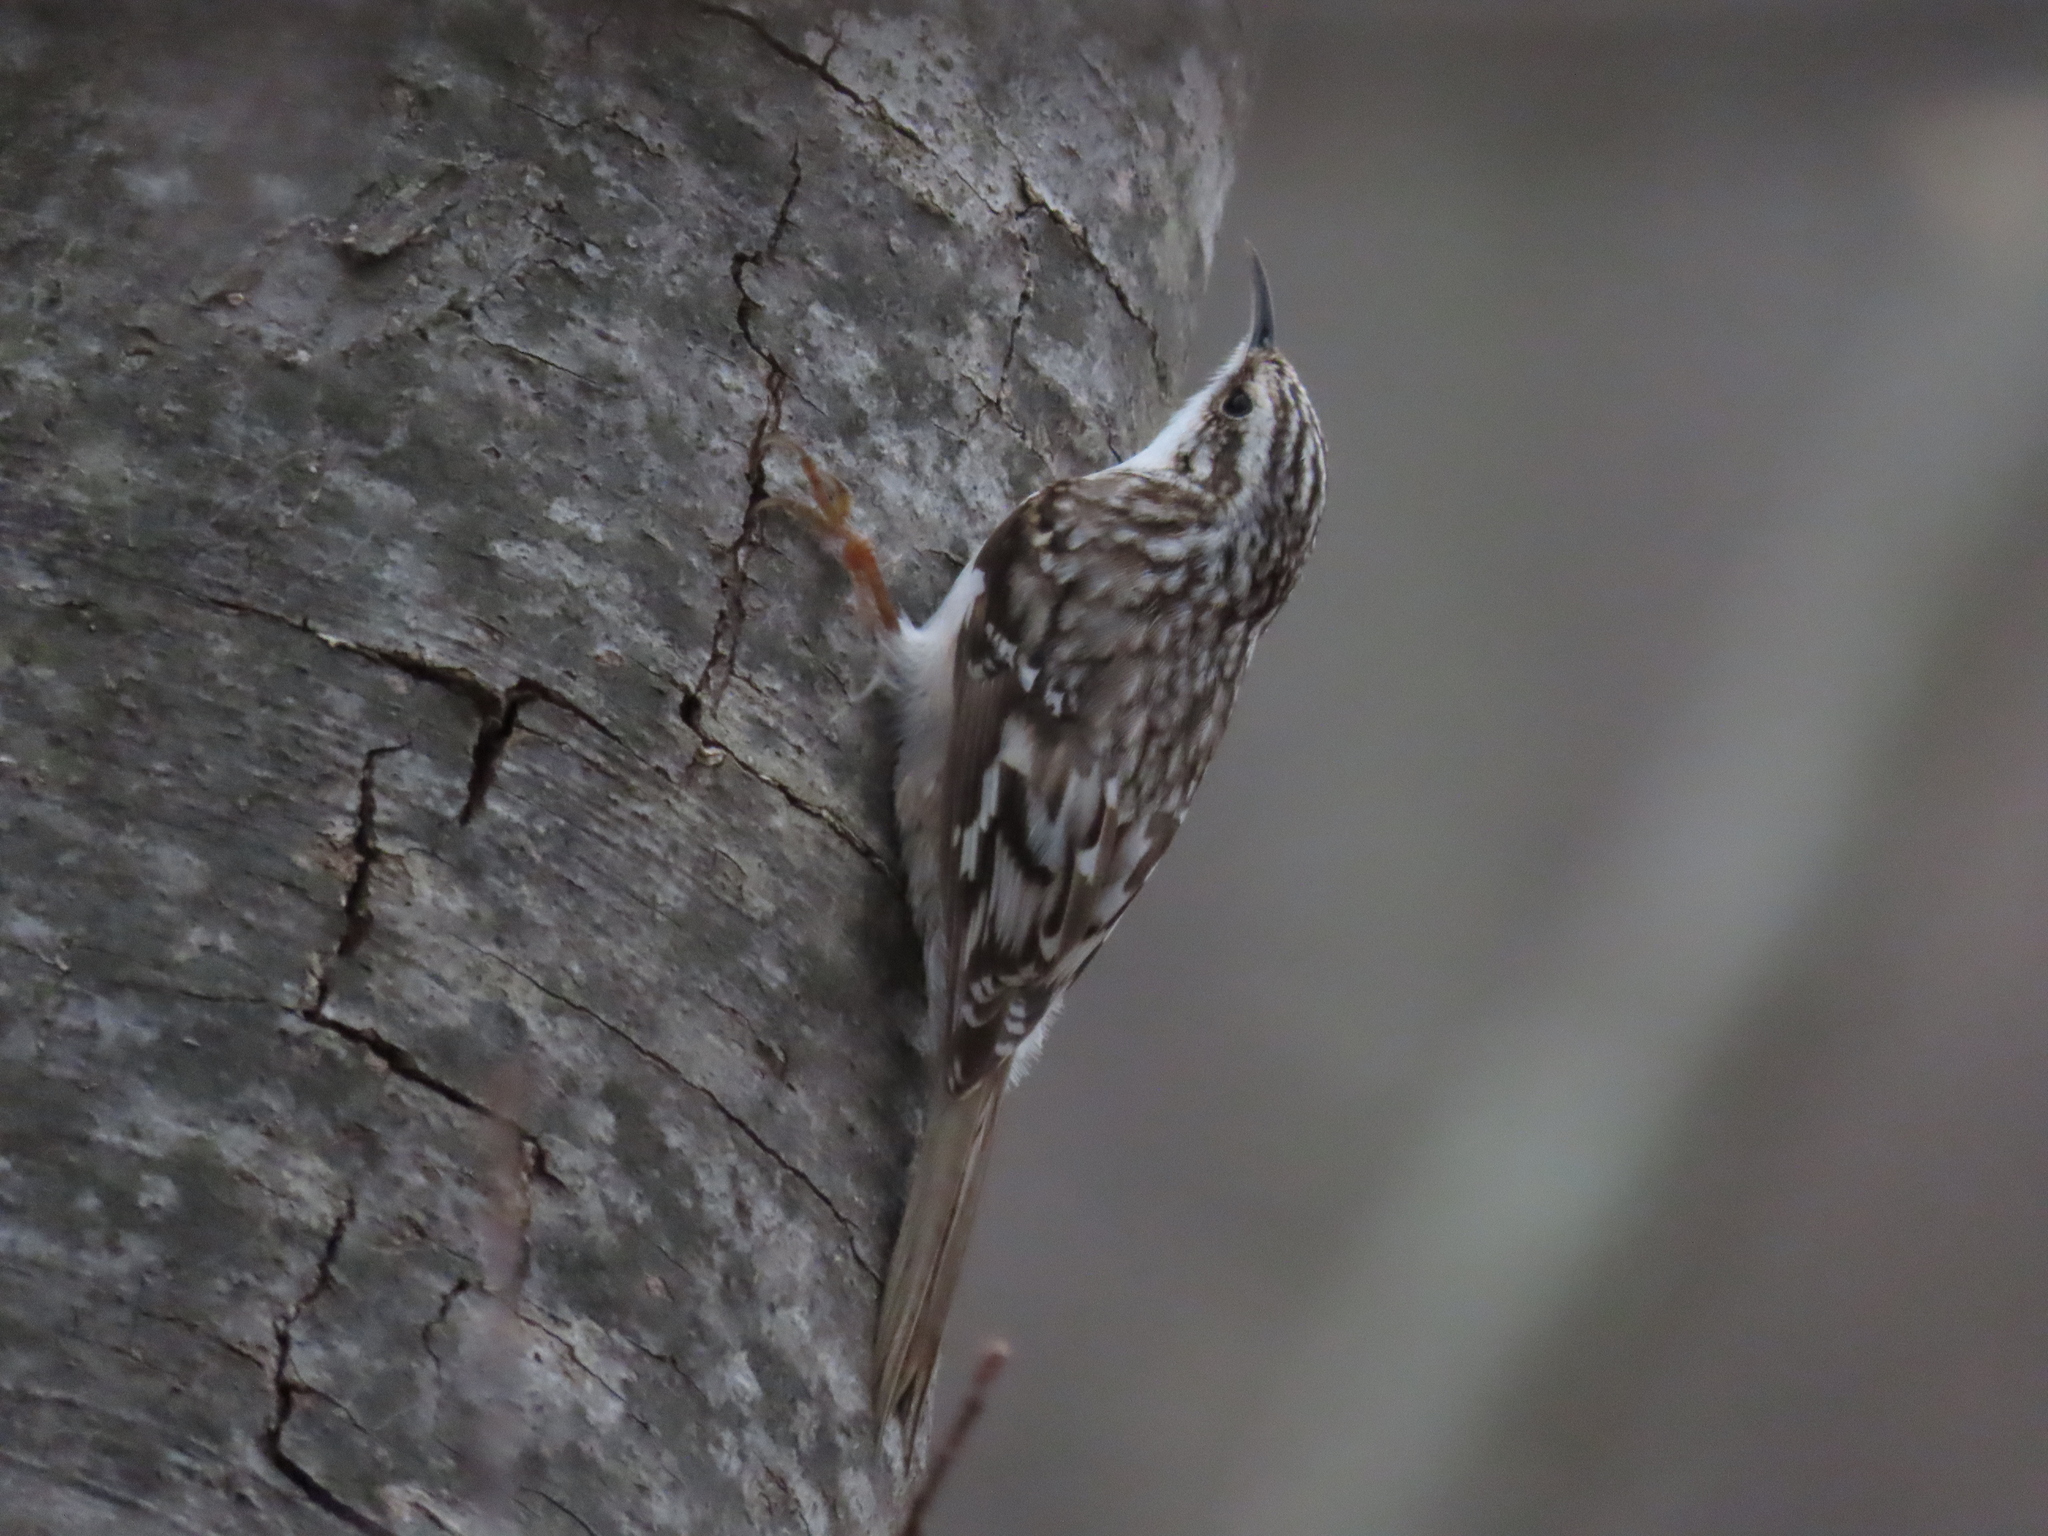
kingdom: Animalia
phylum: Chordata
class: Aves
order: Passeriformes
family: Certhiidae
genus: Certhia
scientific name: Certhia americana
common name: Brown creeper
